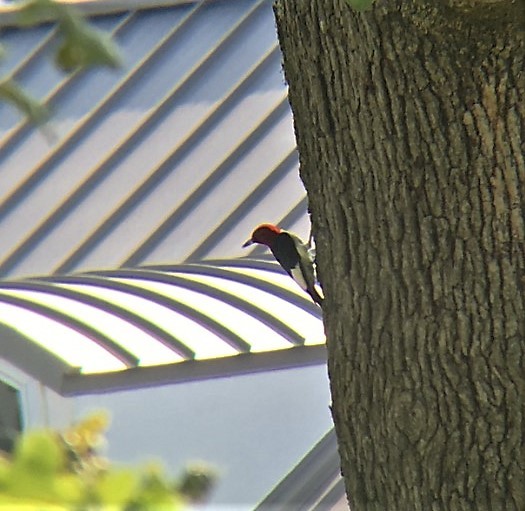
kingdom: Animalia
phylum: Chordata
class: Aves
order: Piciformes
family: Picidae
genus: Melanerpes
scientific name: Melanerpes erythrocephalus
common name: Red-headed woodpecker
